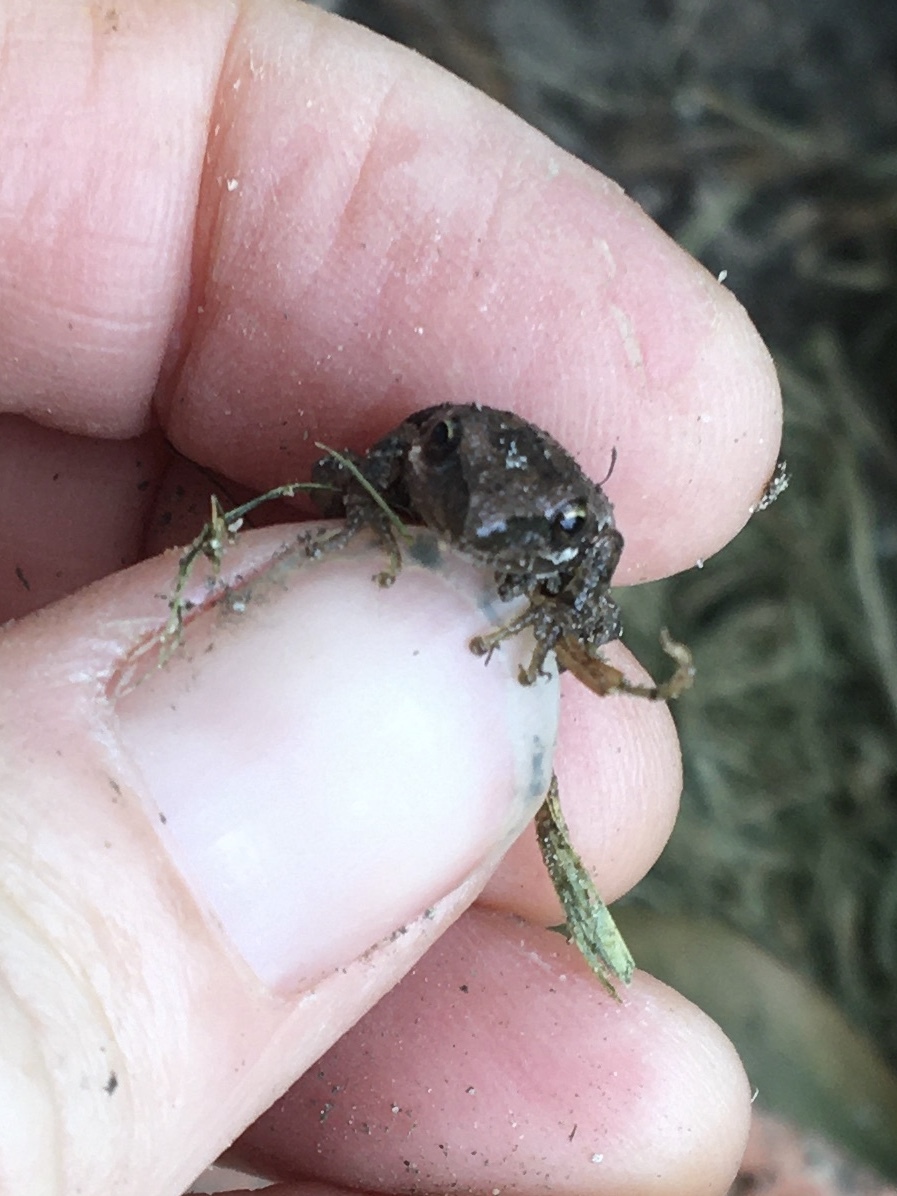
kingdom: Animalia
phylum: Chordata
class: Amphibia
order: Anura
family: Hylidae
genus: Pseudacris
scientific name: Pseudacris regilla
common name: Pacific chorus frog
